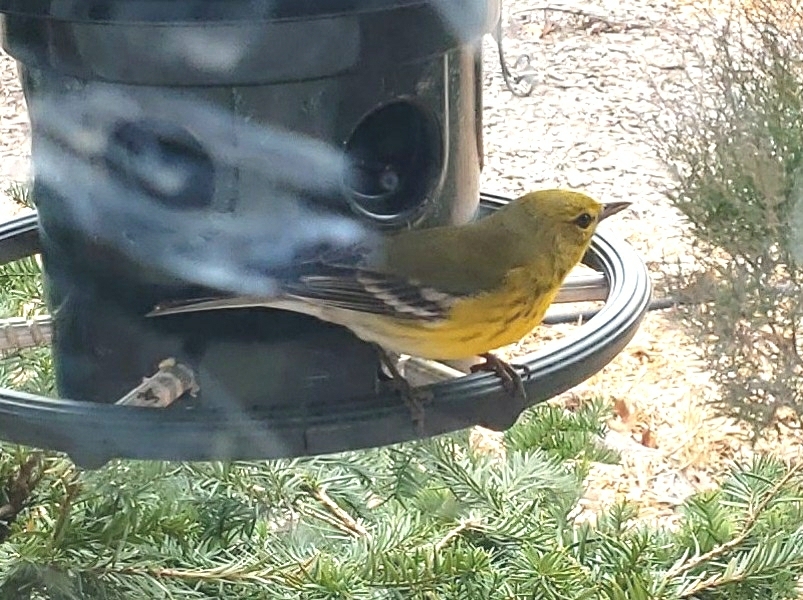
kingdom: Animalia
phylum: Chordata
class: Aves
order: Passeriformes
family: Parulidae
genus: Setophaga
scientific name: Setophaga pinus
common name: Pine warbler
